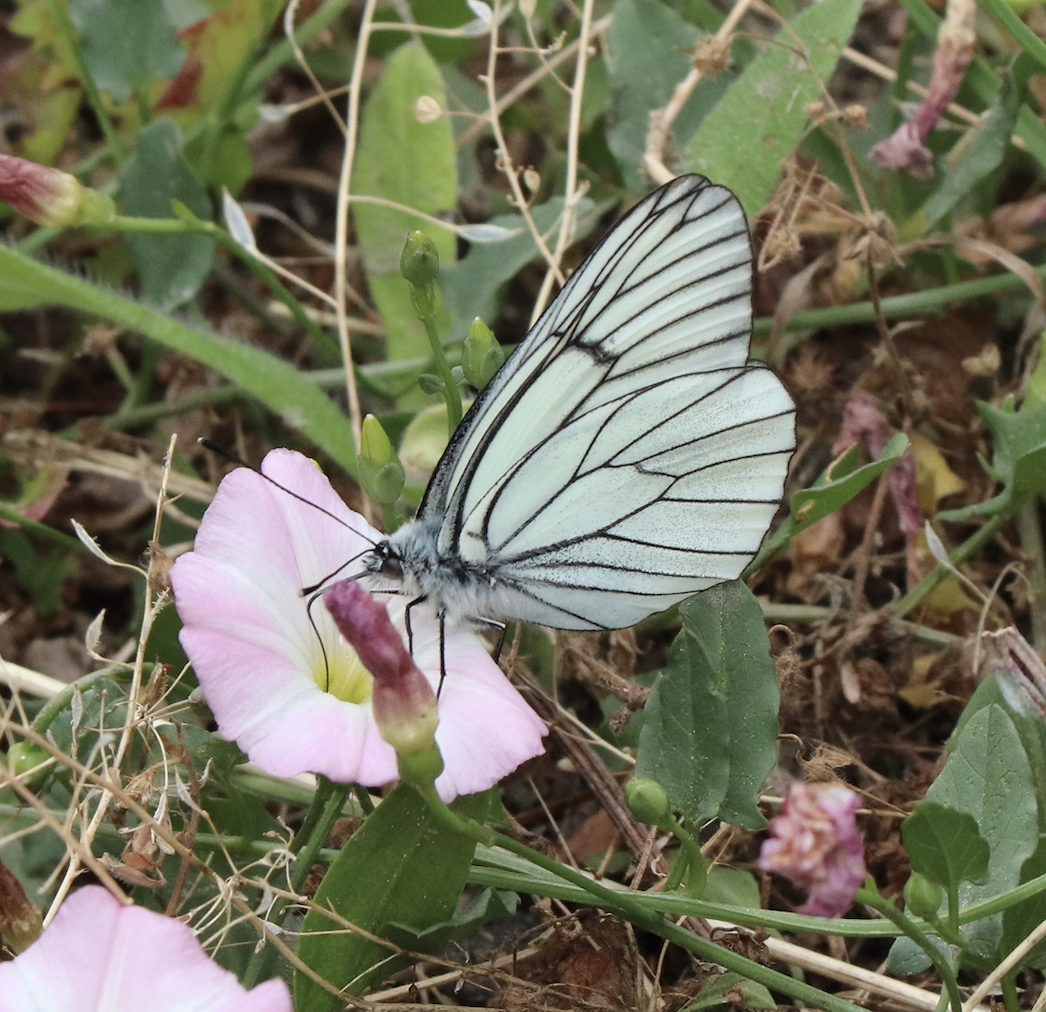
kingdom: Animalia
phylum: Arthropoda
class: Insecta
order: Lepidoptera
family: Pieridae
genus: Aporia
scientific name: Aporia crataegi
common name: Black-veined white
